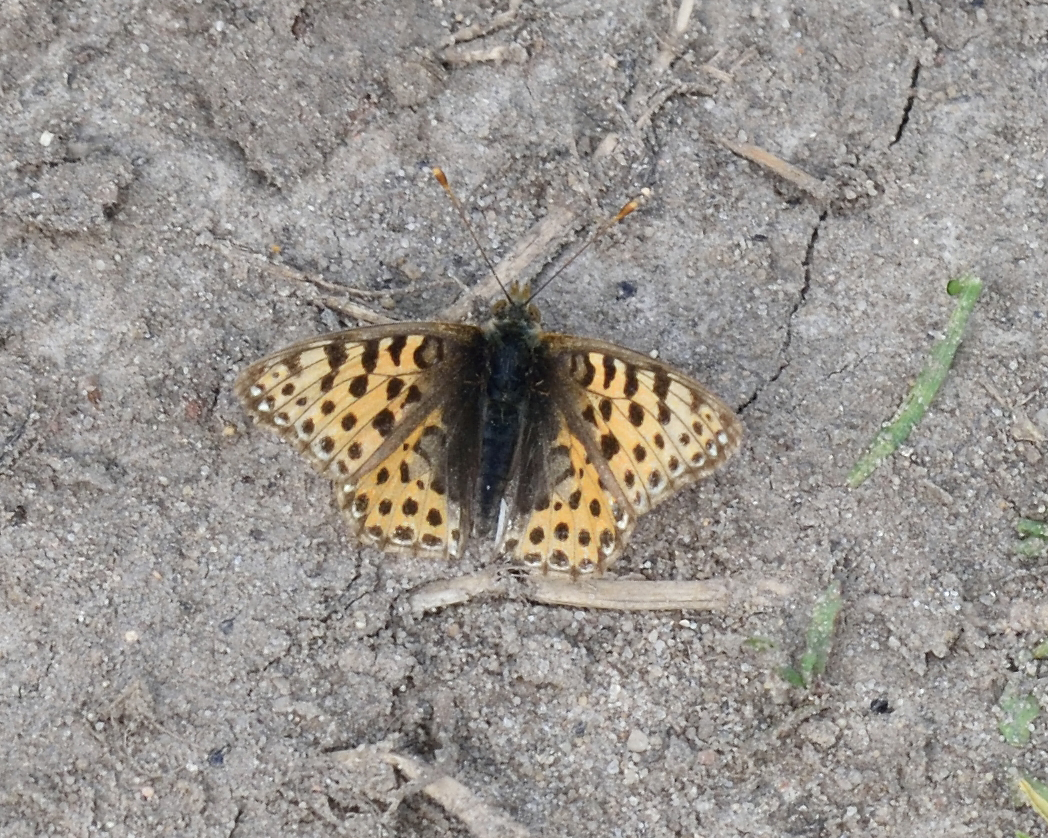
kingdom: Animalia
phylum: Arthropoda
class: Insecta
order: Lepidoptera
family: Nymphalidae
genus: Issoria
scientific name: Issoria lathonia
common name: Queen of spain fritillary
